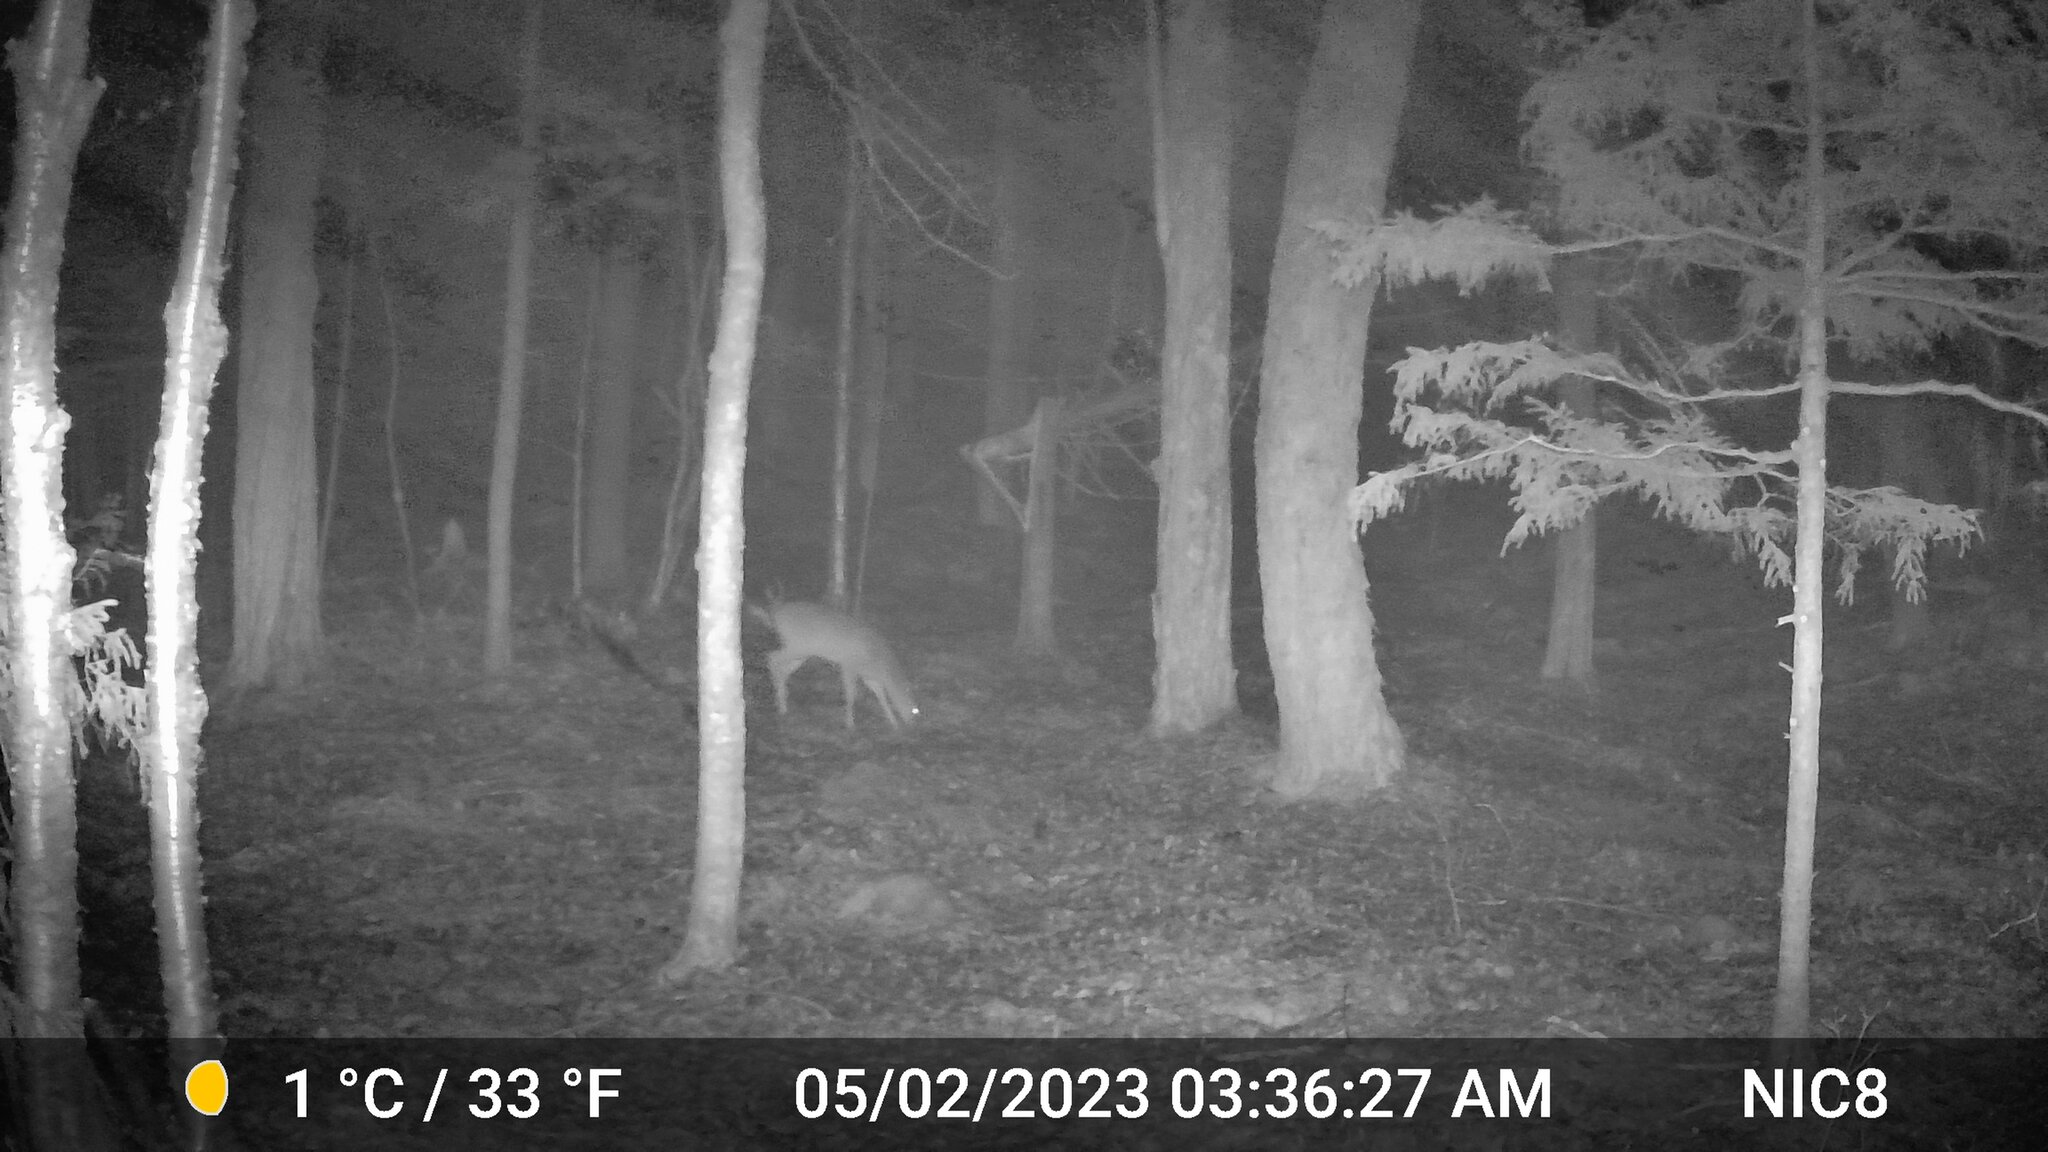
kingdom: Animalia
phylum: Chordata
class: Mammalia
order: Artiodactyla
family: Cervidae
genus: Odocoileus
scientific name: Odocoileus virginianus
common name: White-tailed deer
